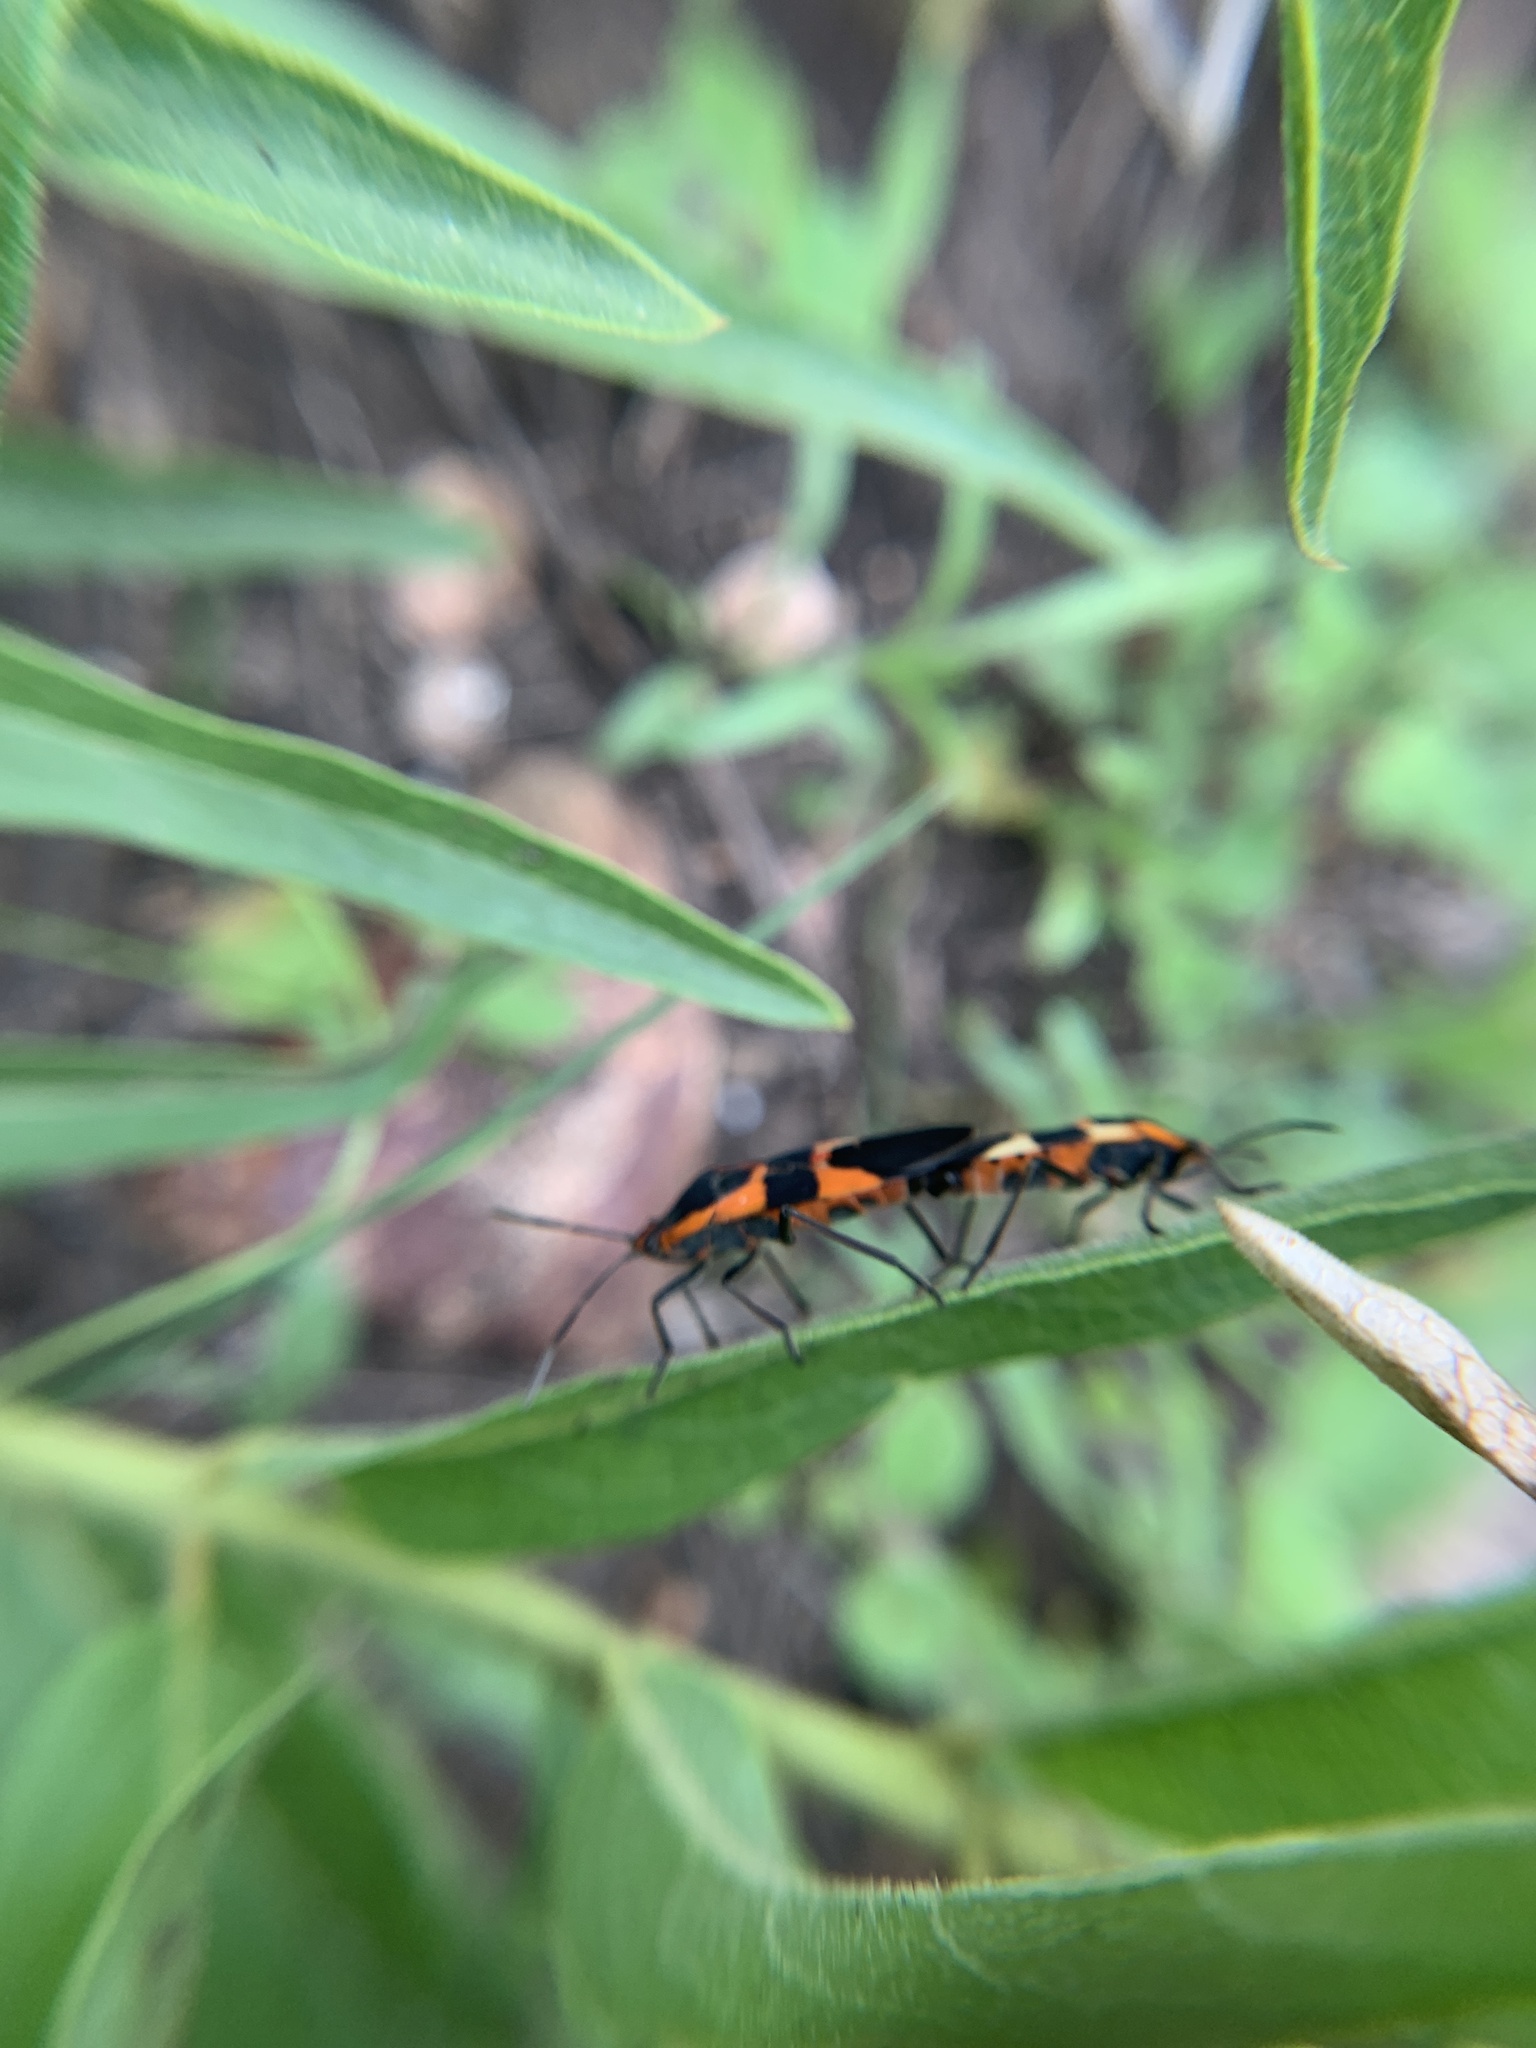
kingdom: Animalia
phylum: Arthropoda
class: Insecta
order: Hemiptera
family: Lygaeidae
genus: Oncopeltus
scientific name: Oncopeltus fasciatus
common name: Large milkweed bug
